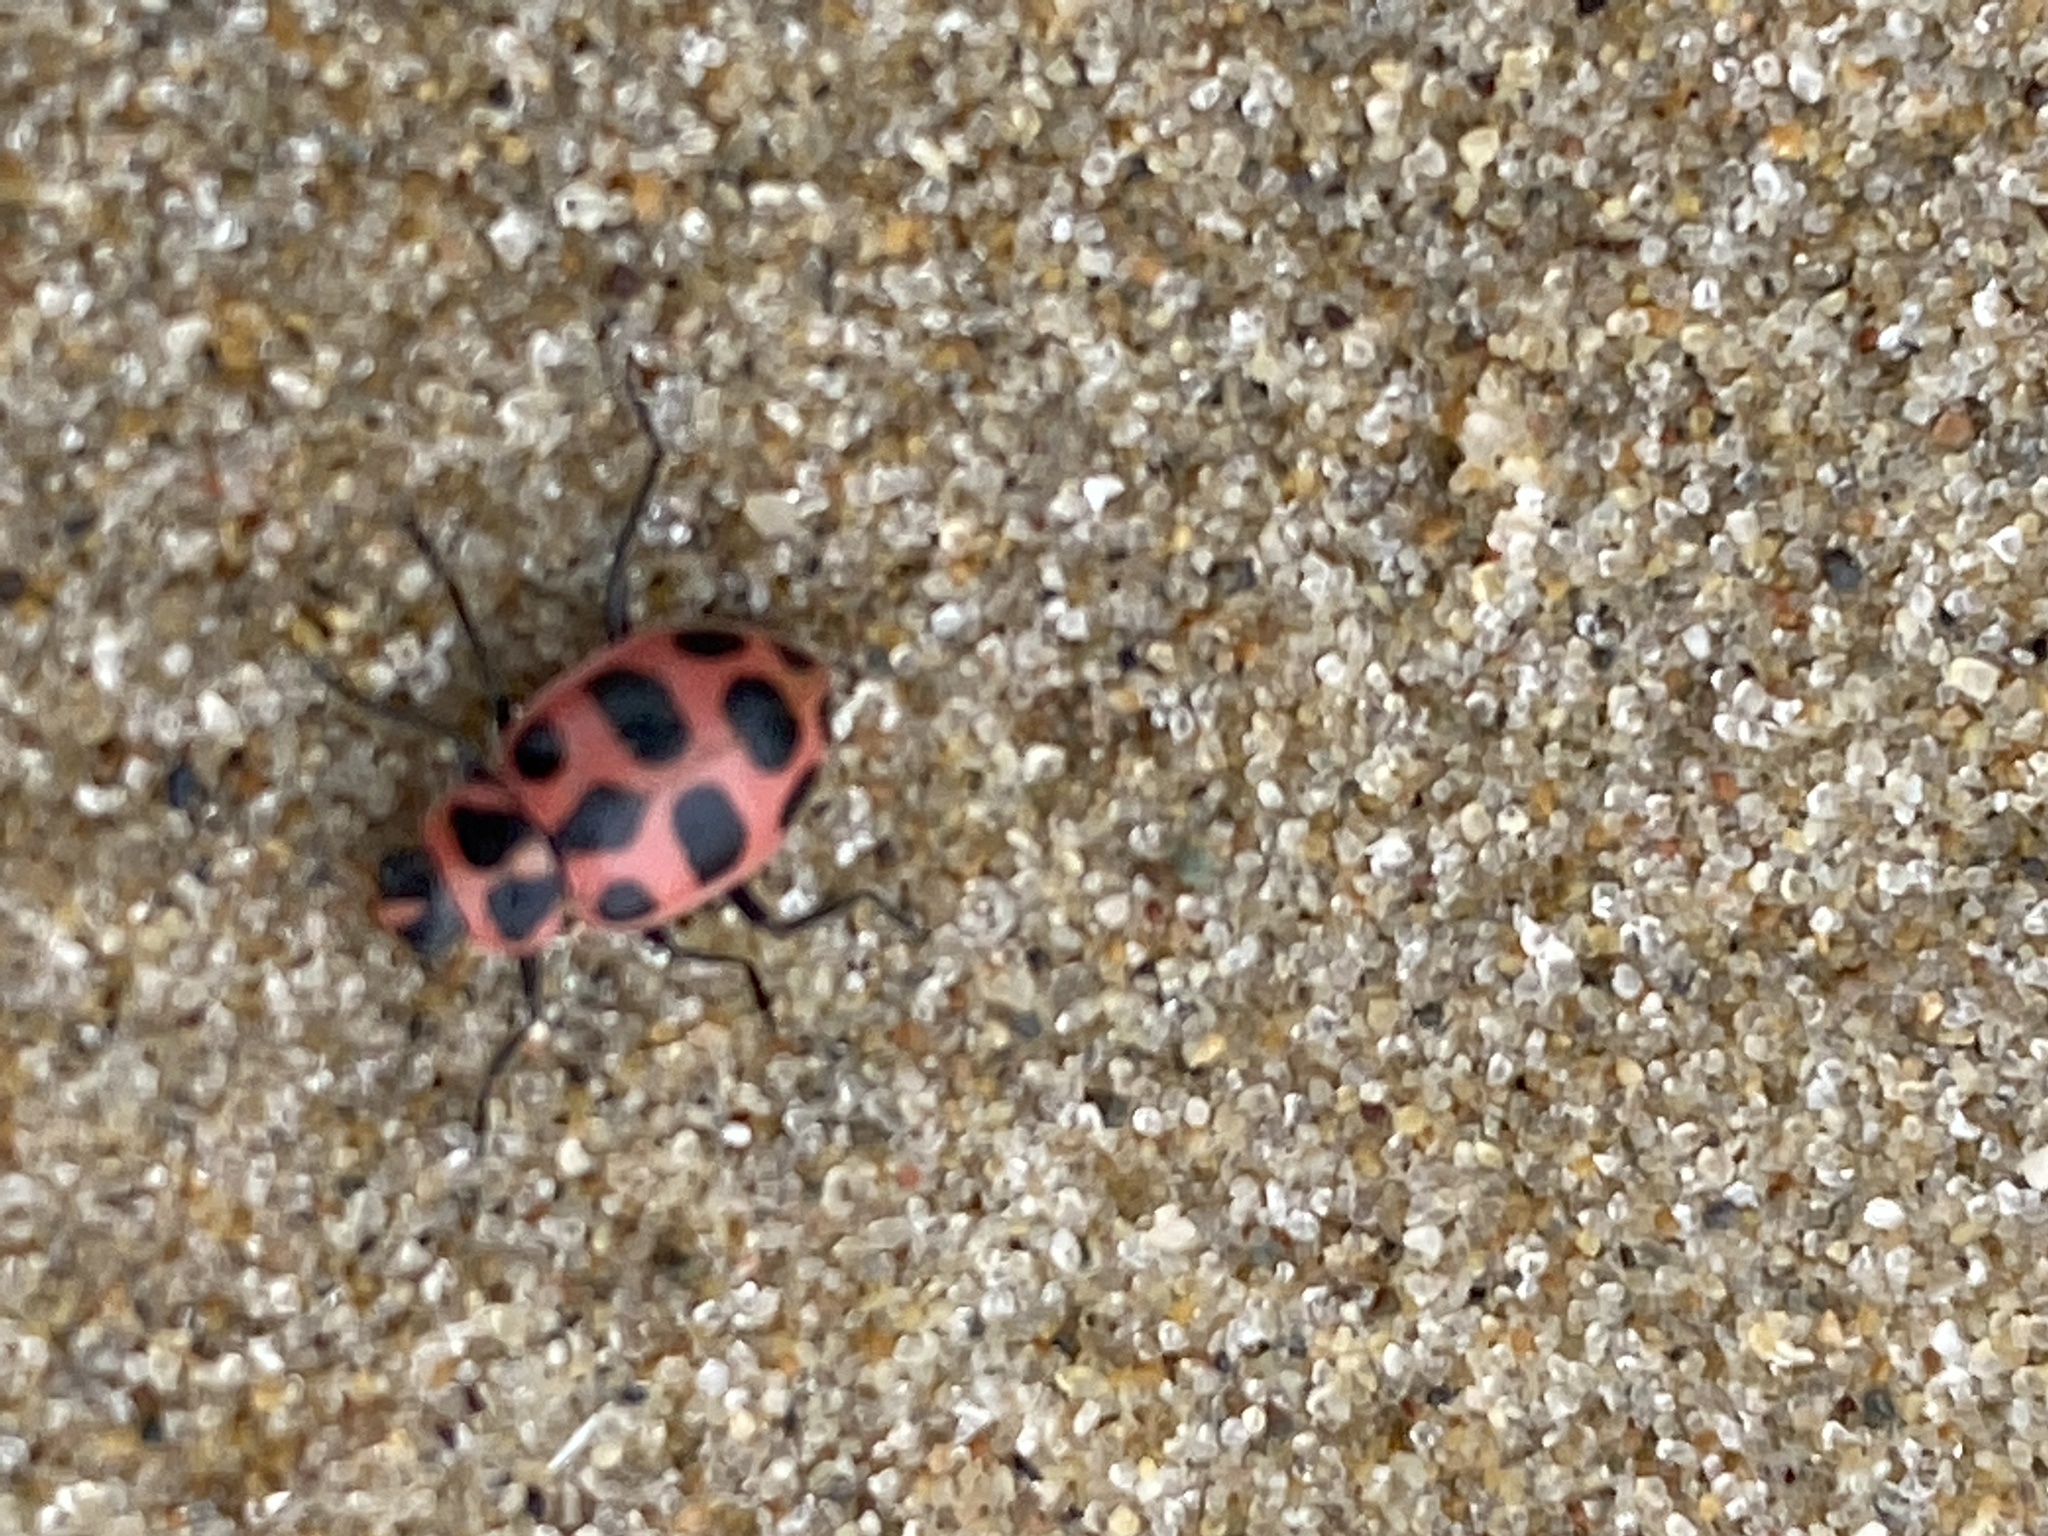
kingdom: Animalia
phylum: Arthropoda
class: Insecta
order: Coleoptera
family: Coccinellidae
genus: Coleomegilla
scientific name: Coleomegilla maculata
